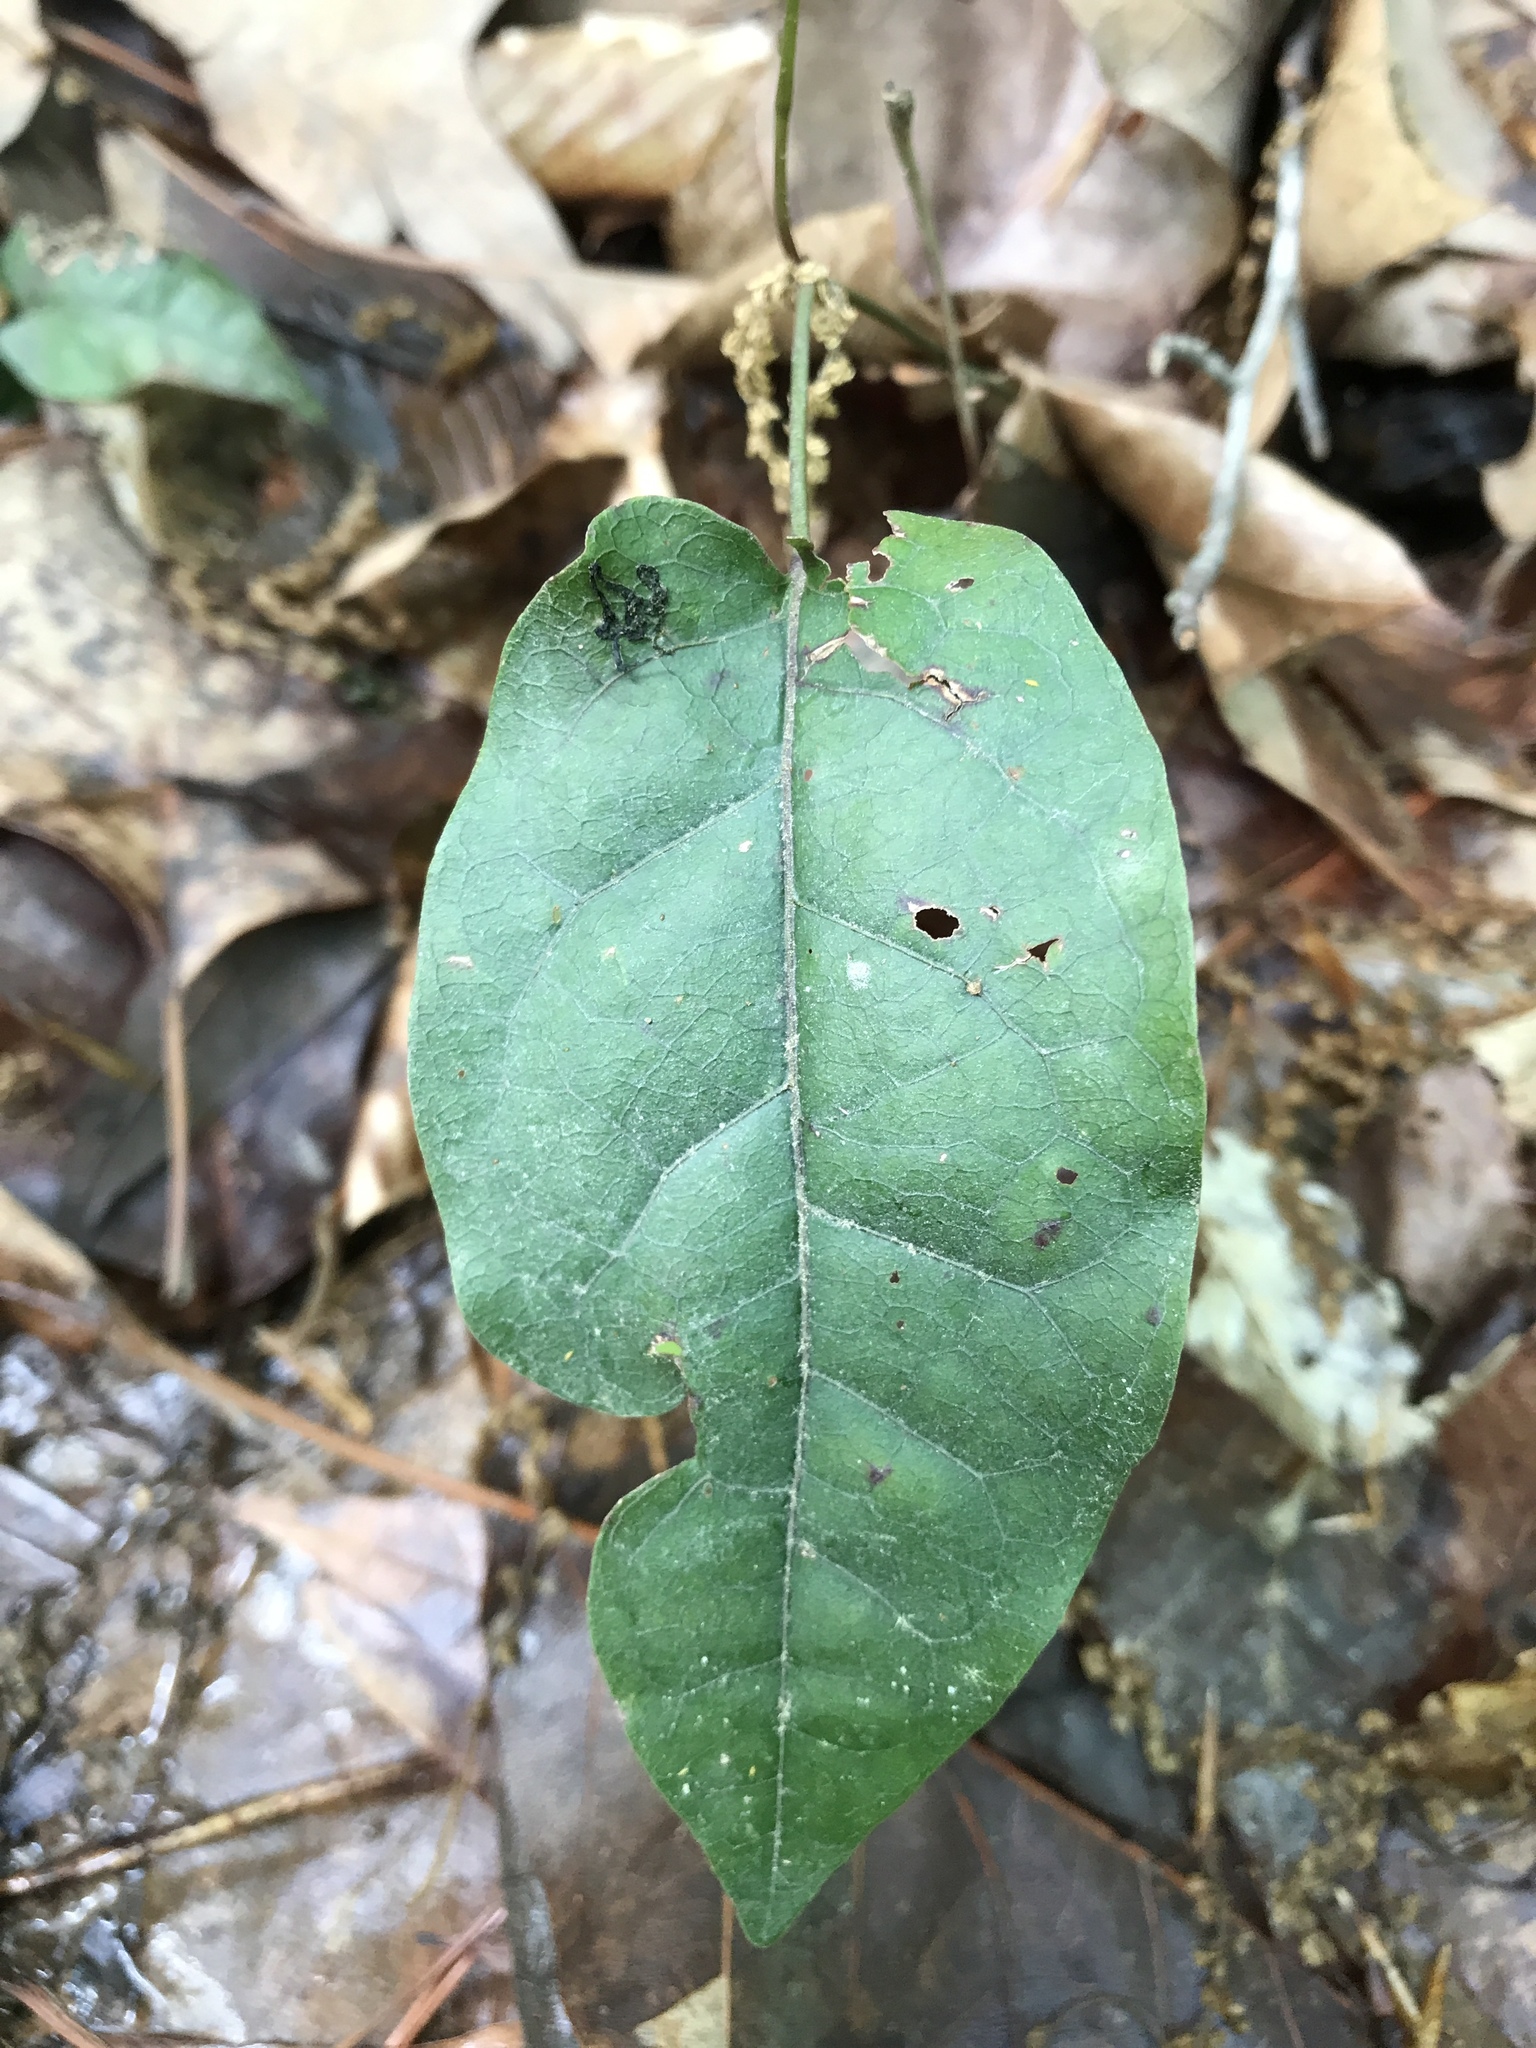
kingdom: Plantae
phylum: Tracheophyta
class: Magnoliopsida
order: Lamiales
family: Bignoniaceae
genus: Bignonia
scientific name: Bignonia capreolata
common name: Crossvine
